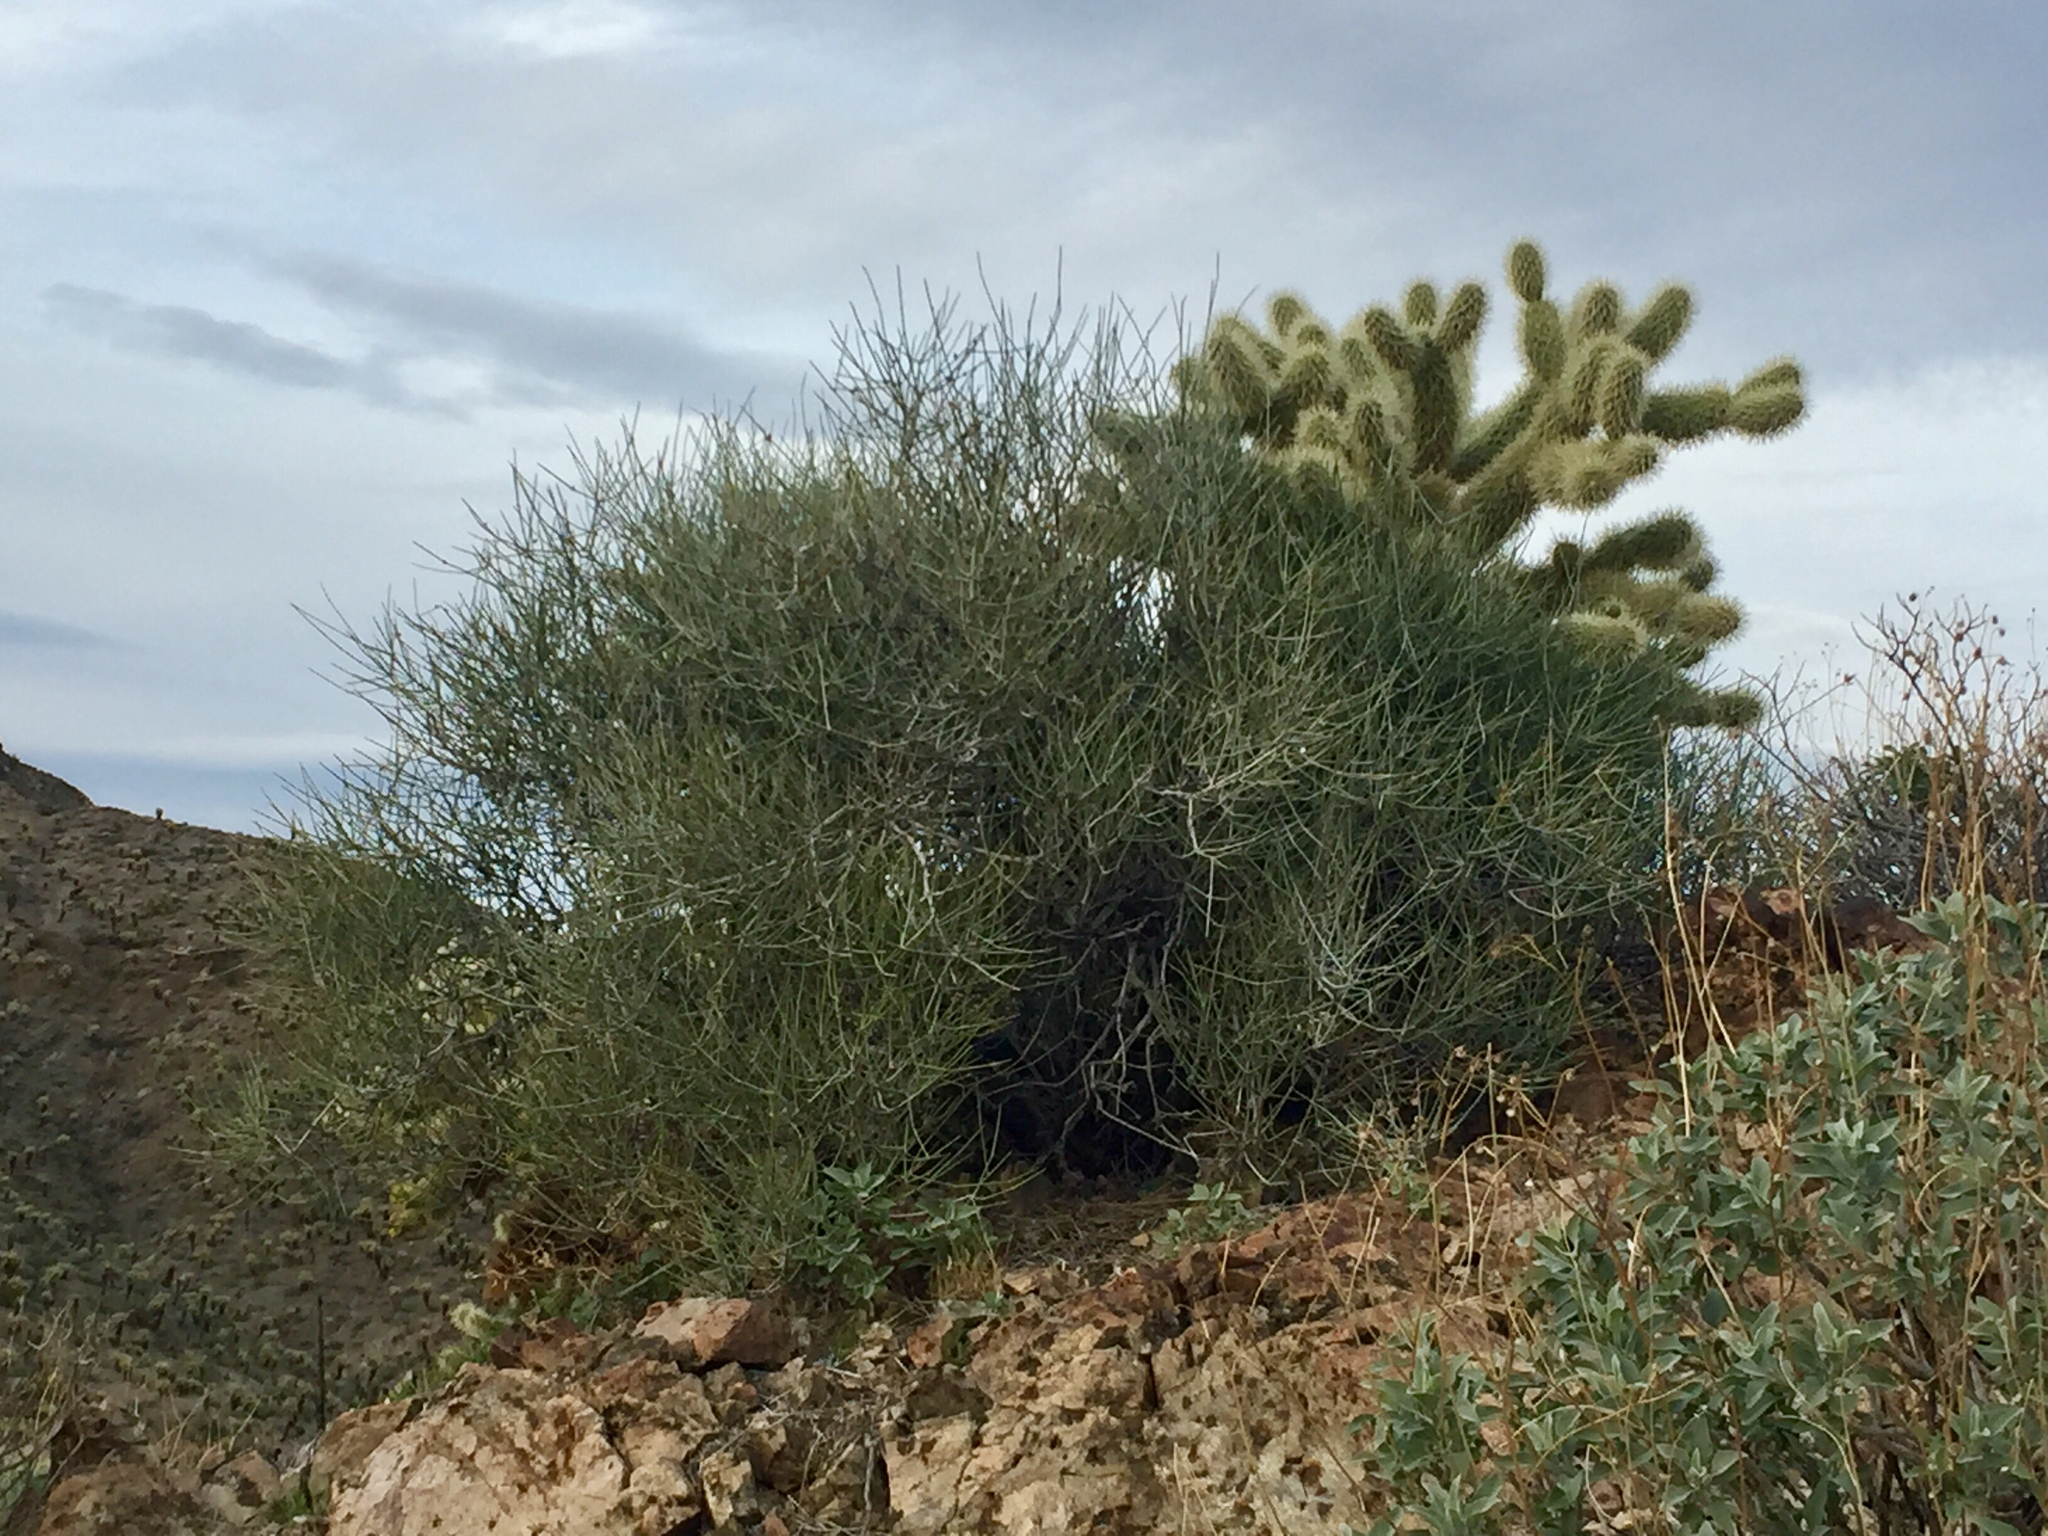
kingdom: Plantae
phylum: Tracheophyta
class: Gnetopsida
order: Ephedrales
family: Ephedraceae
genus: Ephedra
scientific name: Ephedra torreyana
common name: Torrey ephedra
